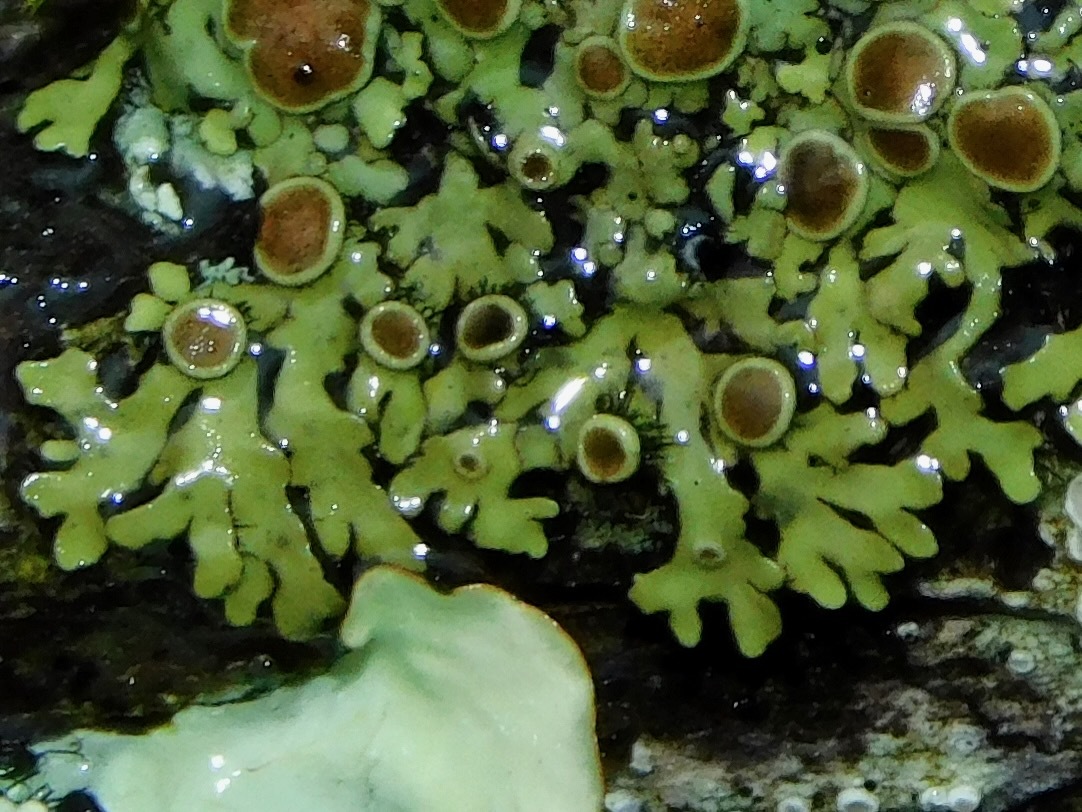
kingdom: Fungi
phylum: Ascomycota
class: Lecanoromycetes
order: Caliciales
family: Physciaceae
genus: Phaeophyscia
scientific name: Phaeophyscia ciliata
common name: Smooth shadow lichen
